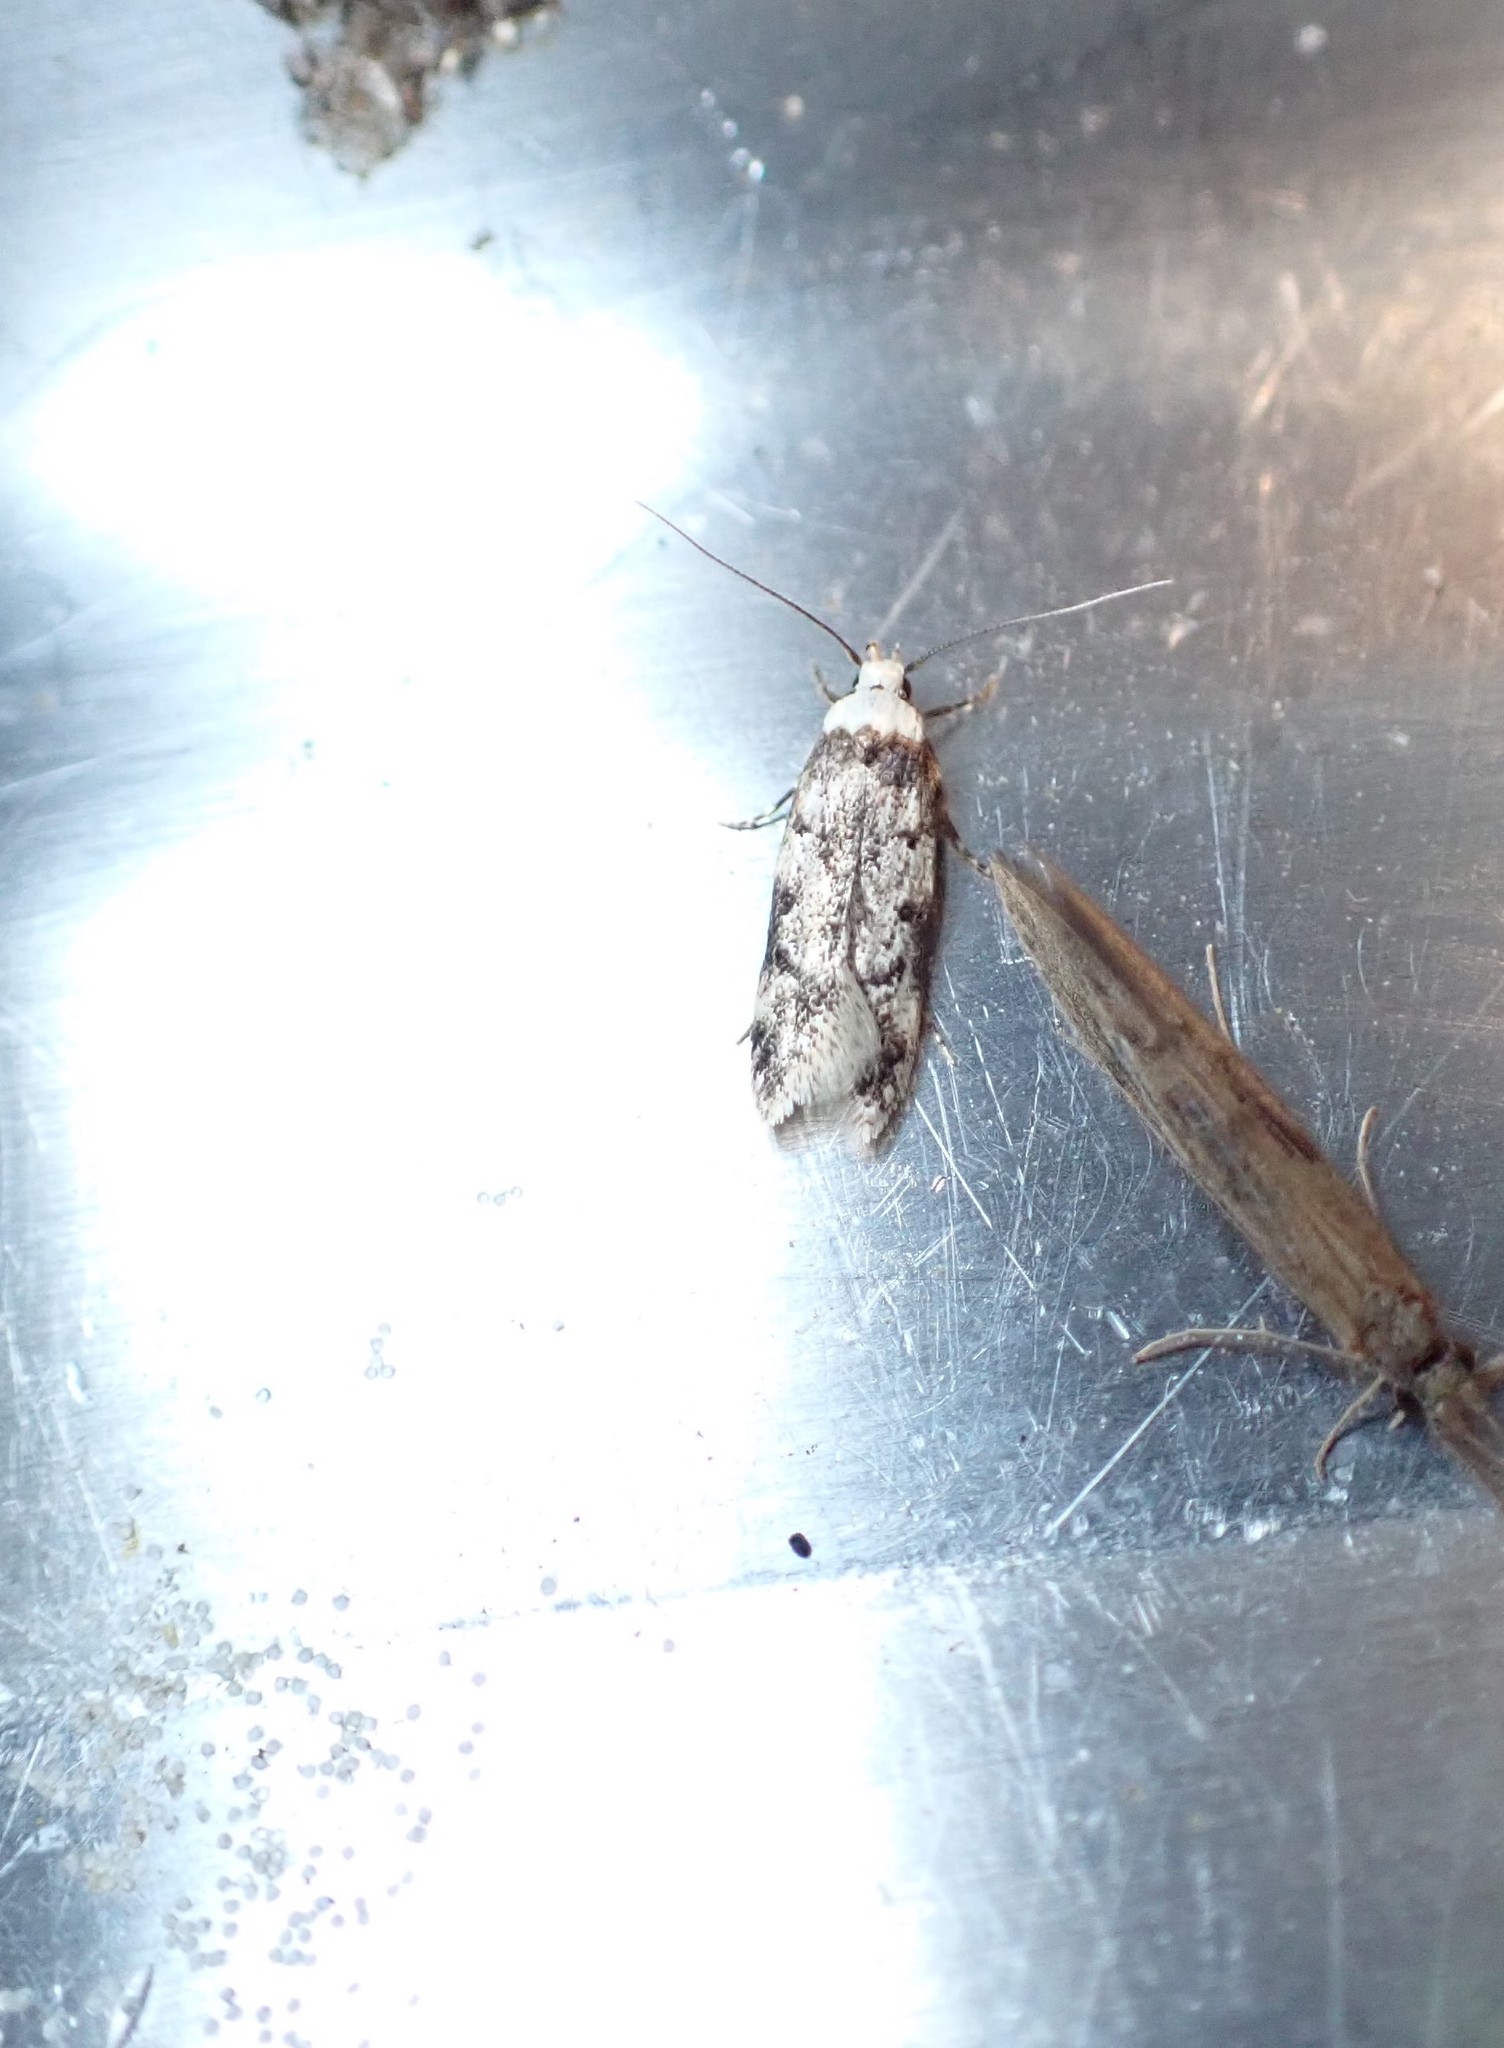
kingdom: Animalia
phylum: Arthropoda
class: Insecta
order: Lepidoptera
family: Oecophoridae
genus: Endrosis
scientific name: Endrosis sarcitrella
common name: White-shouldered house moth
